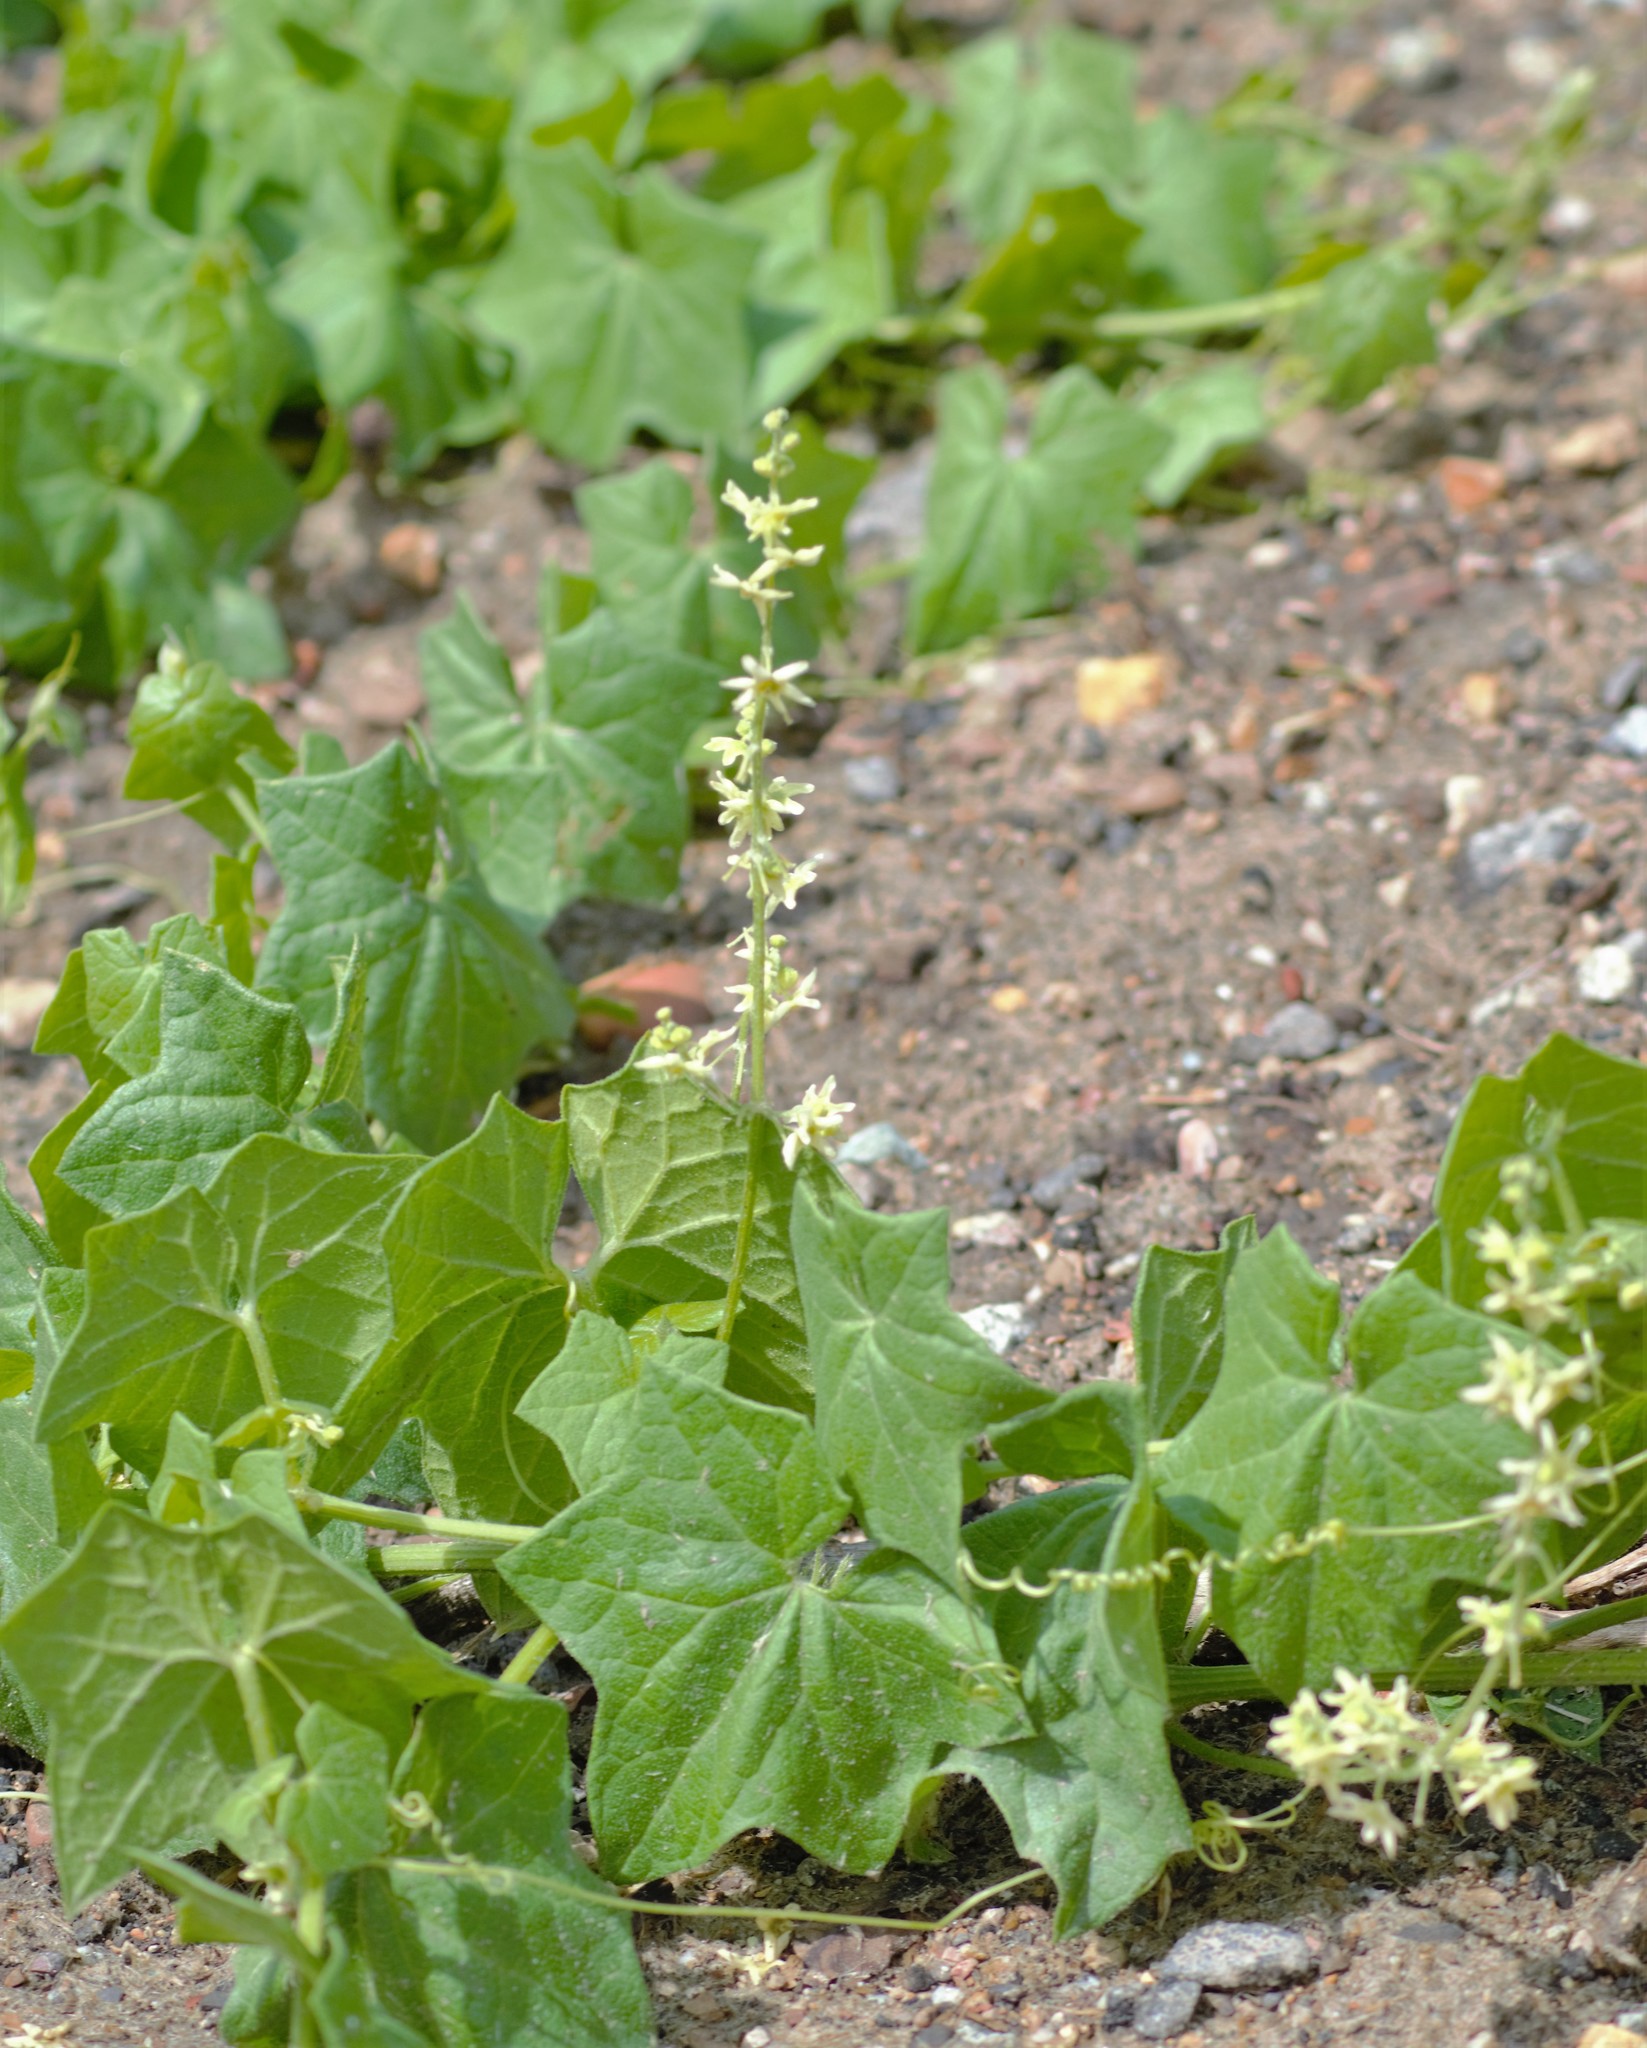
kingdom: Plantae
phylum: Tracheophyta
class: Magnoliopsida
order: Cucurbitales
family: Cucurbitaceae
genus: Marah
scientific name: Marah fabacea
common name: California manroot
